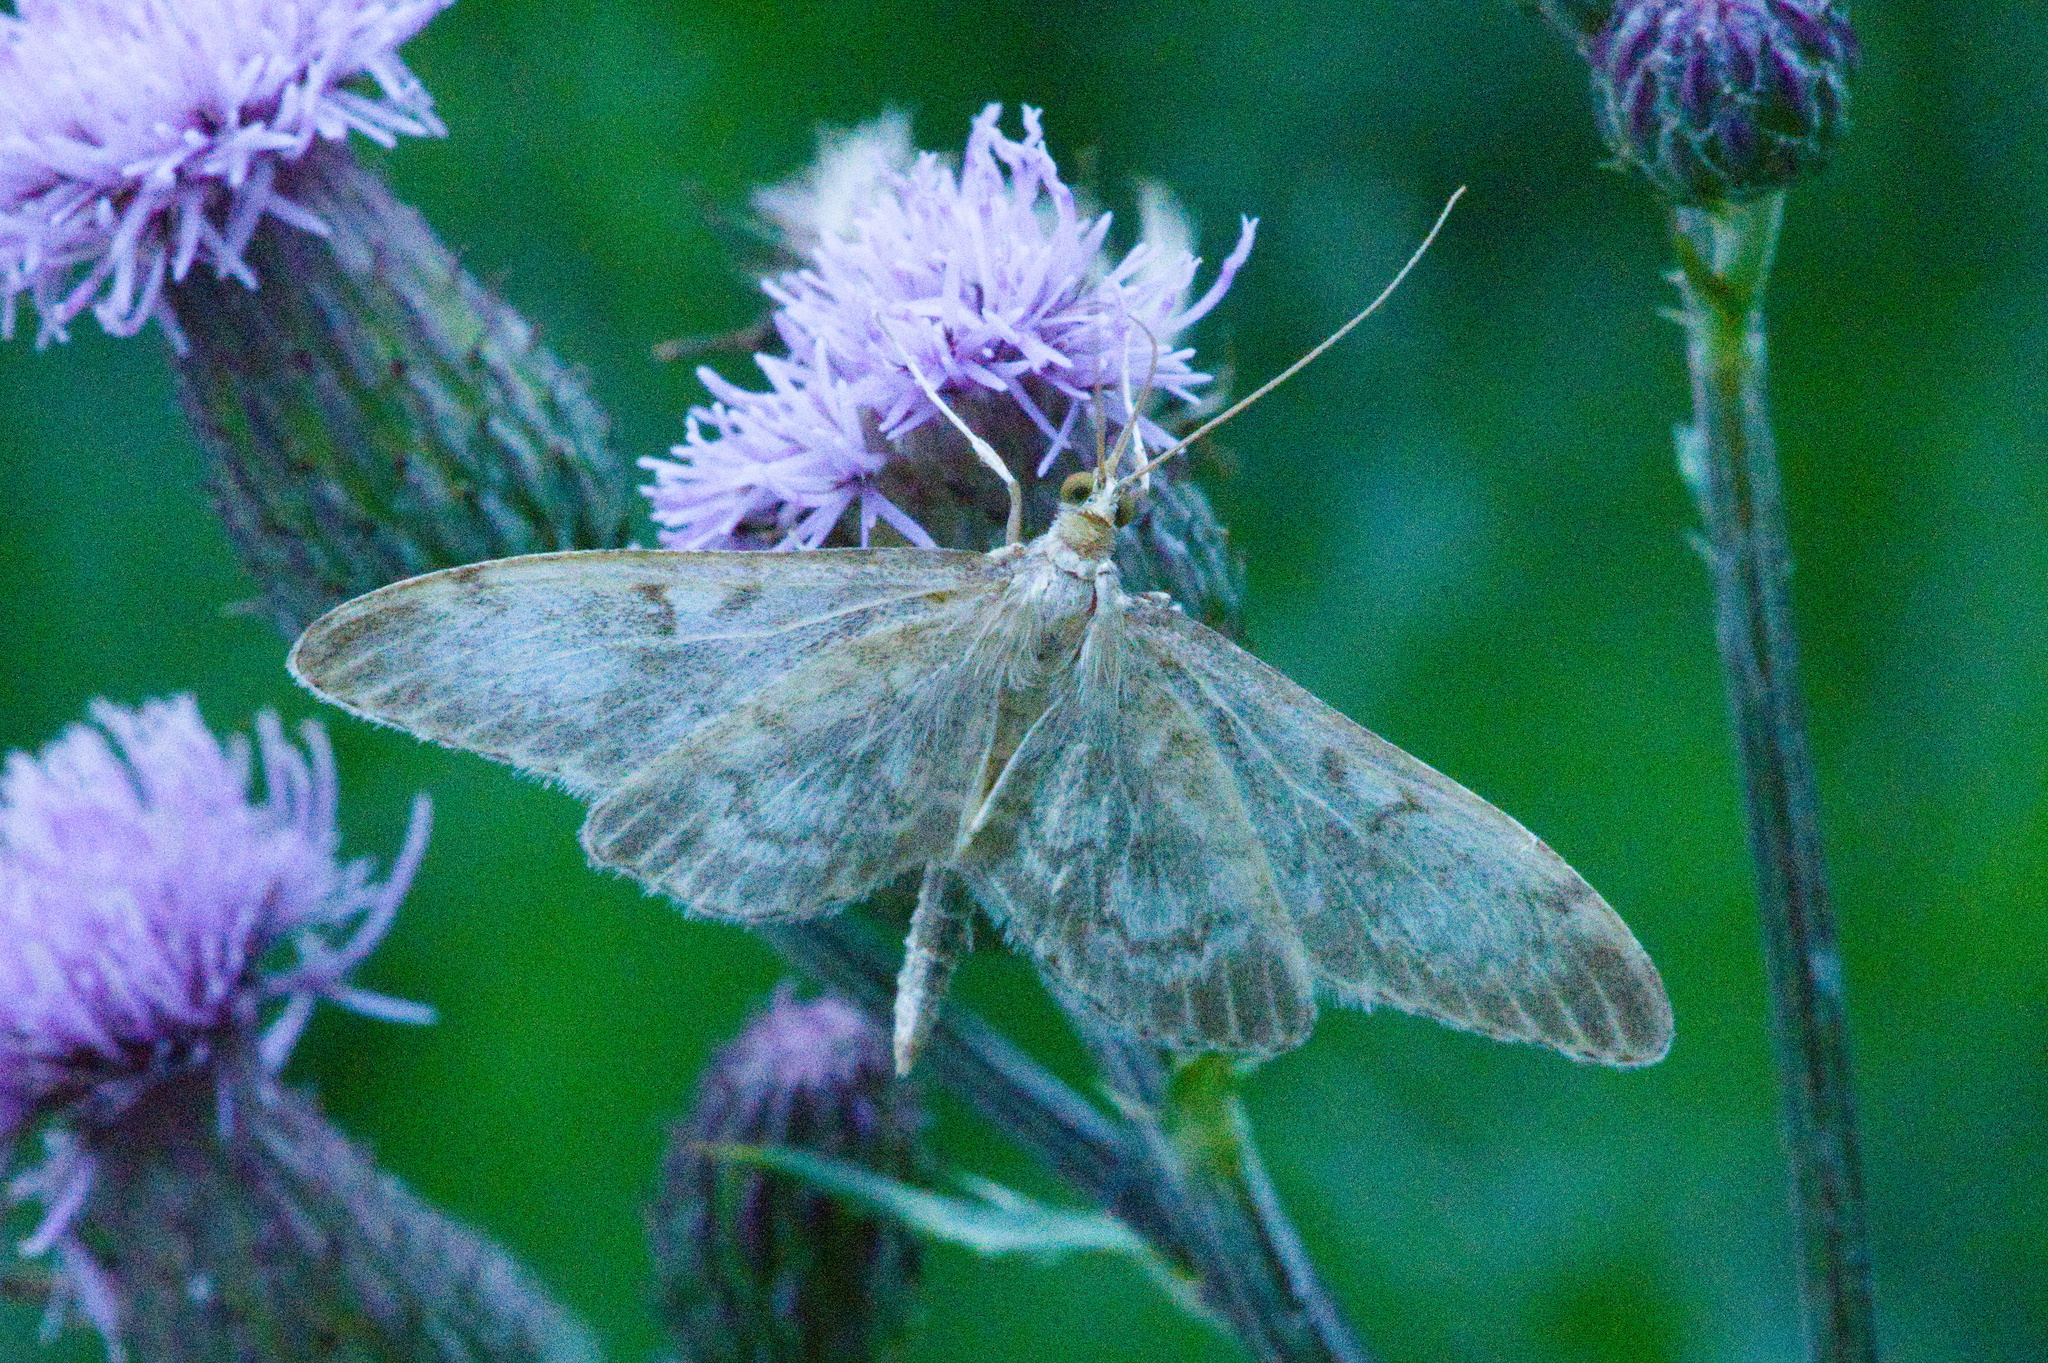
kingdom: Animalia
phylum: Arthropoda
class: Insecta
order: Lepidoptera
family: Crambidae
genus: Anania
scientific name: Anania lancealis
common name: Long-winged pearl
